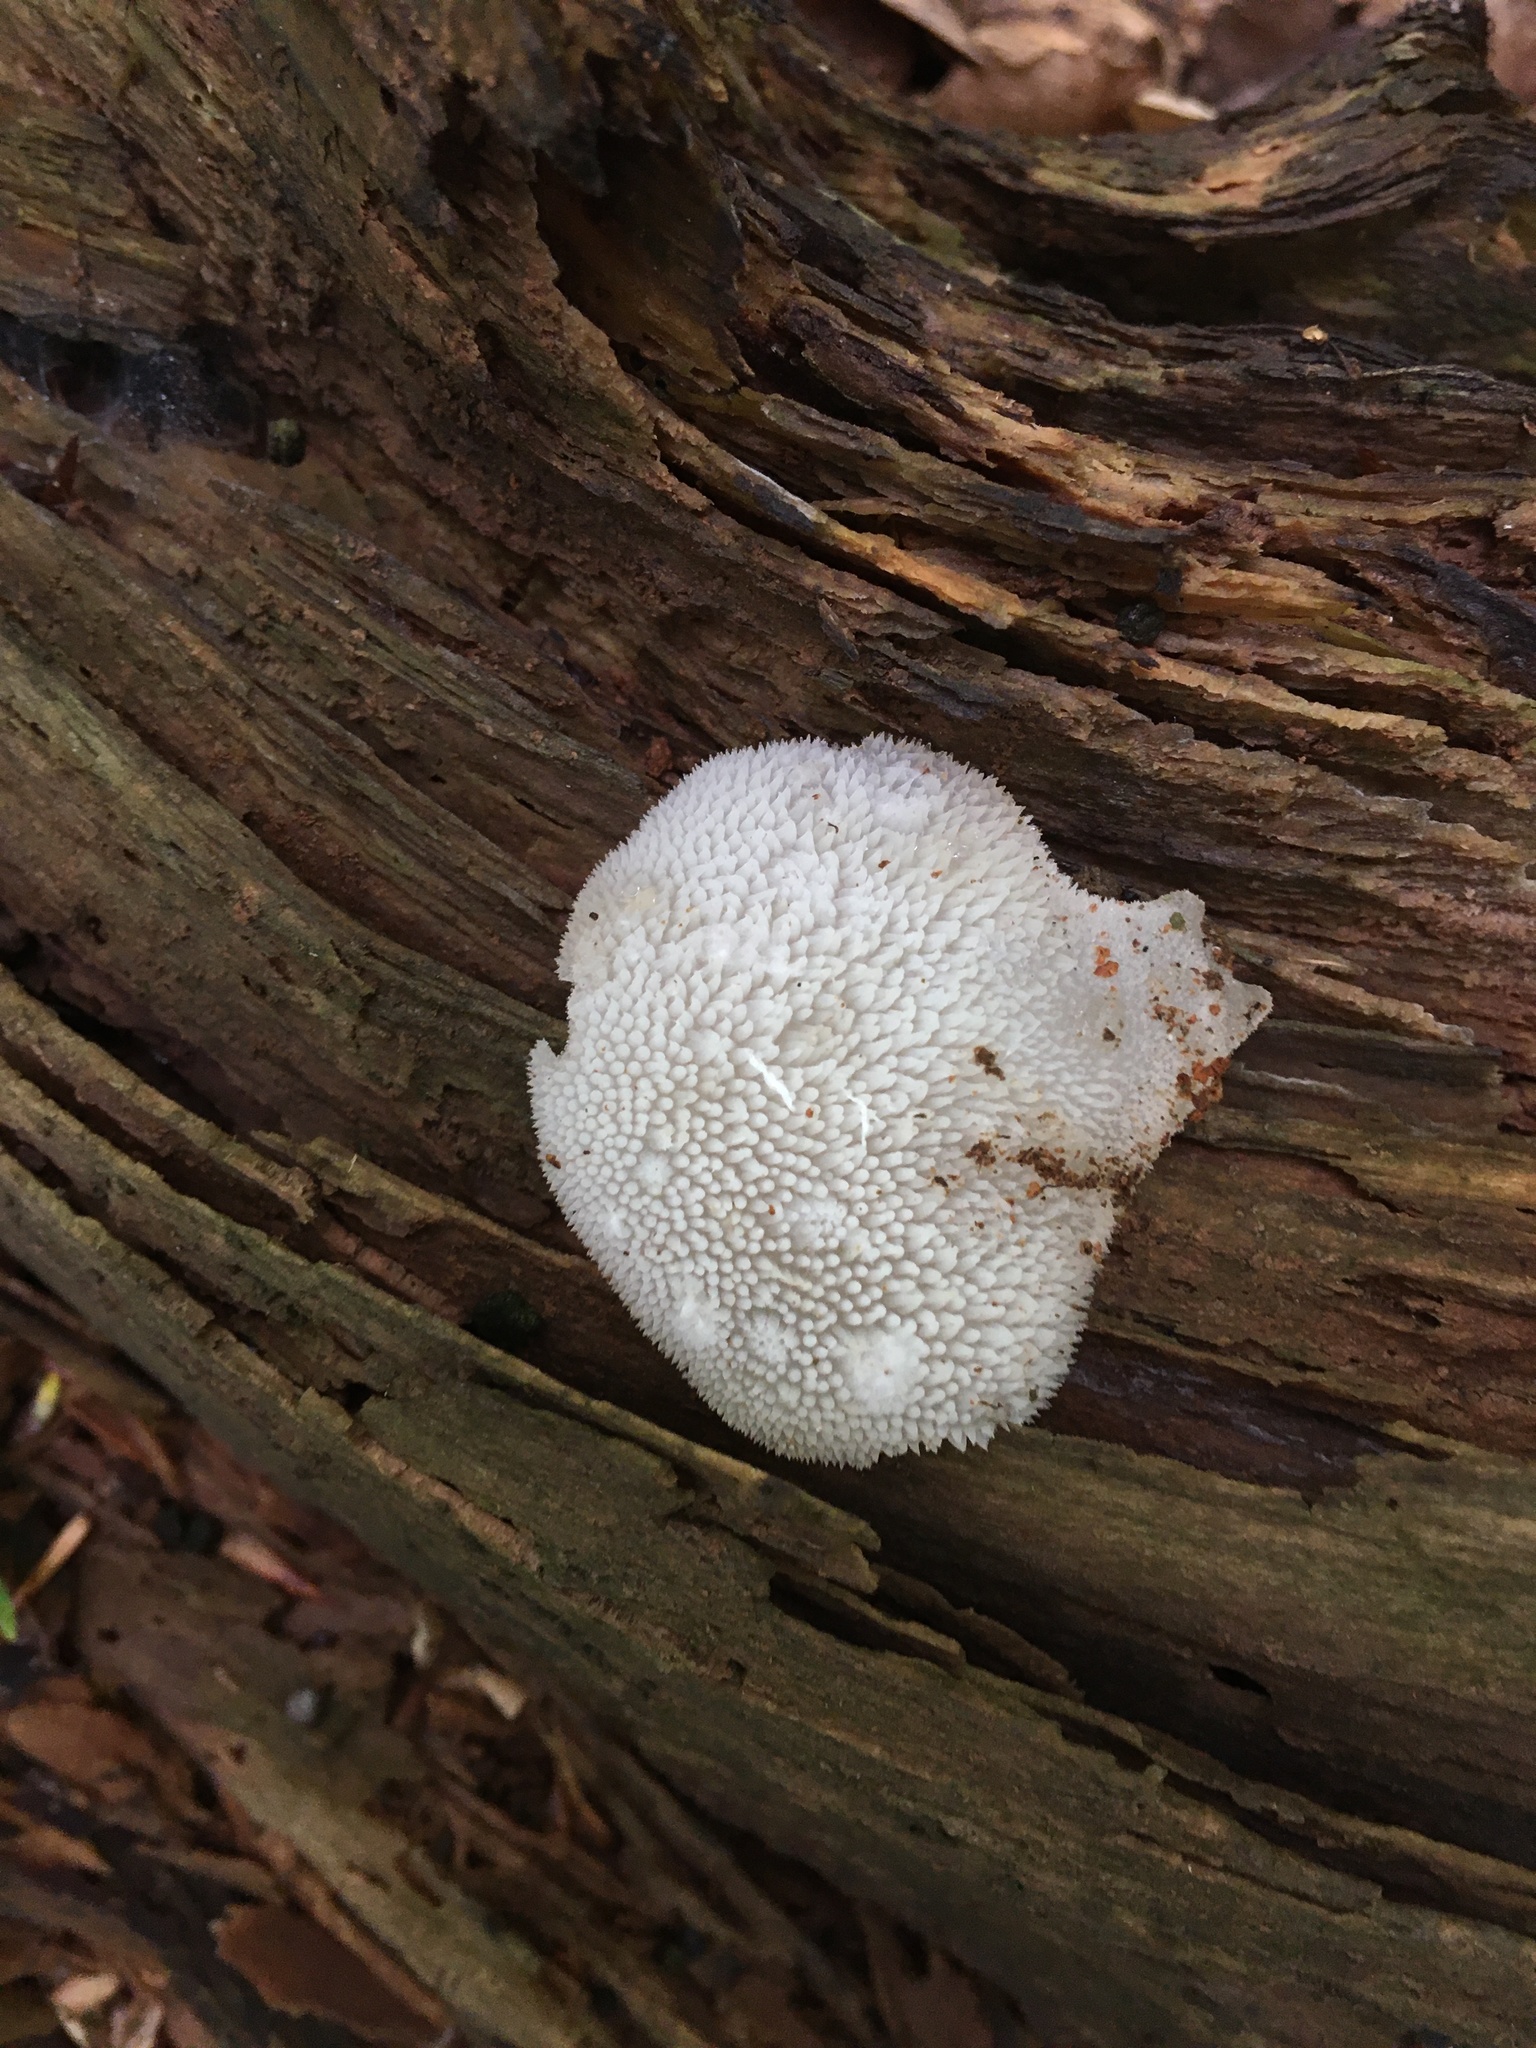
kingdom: Fungi
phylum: Basidiomycota
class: Agaricomycetes
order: Auriculariales
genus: Pseudohydnum
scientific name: Pseudohydnum gelatinosum
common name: Jelly tongue
